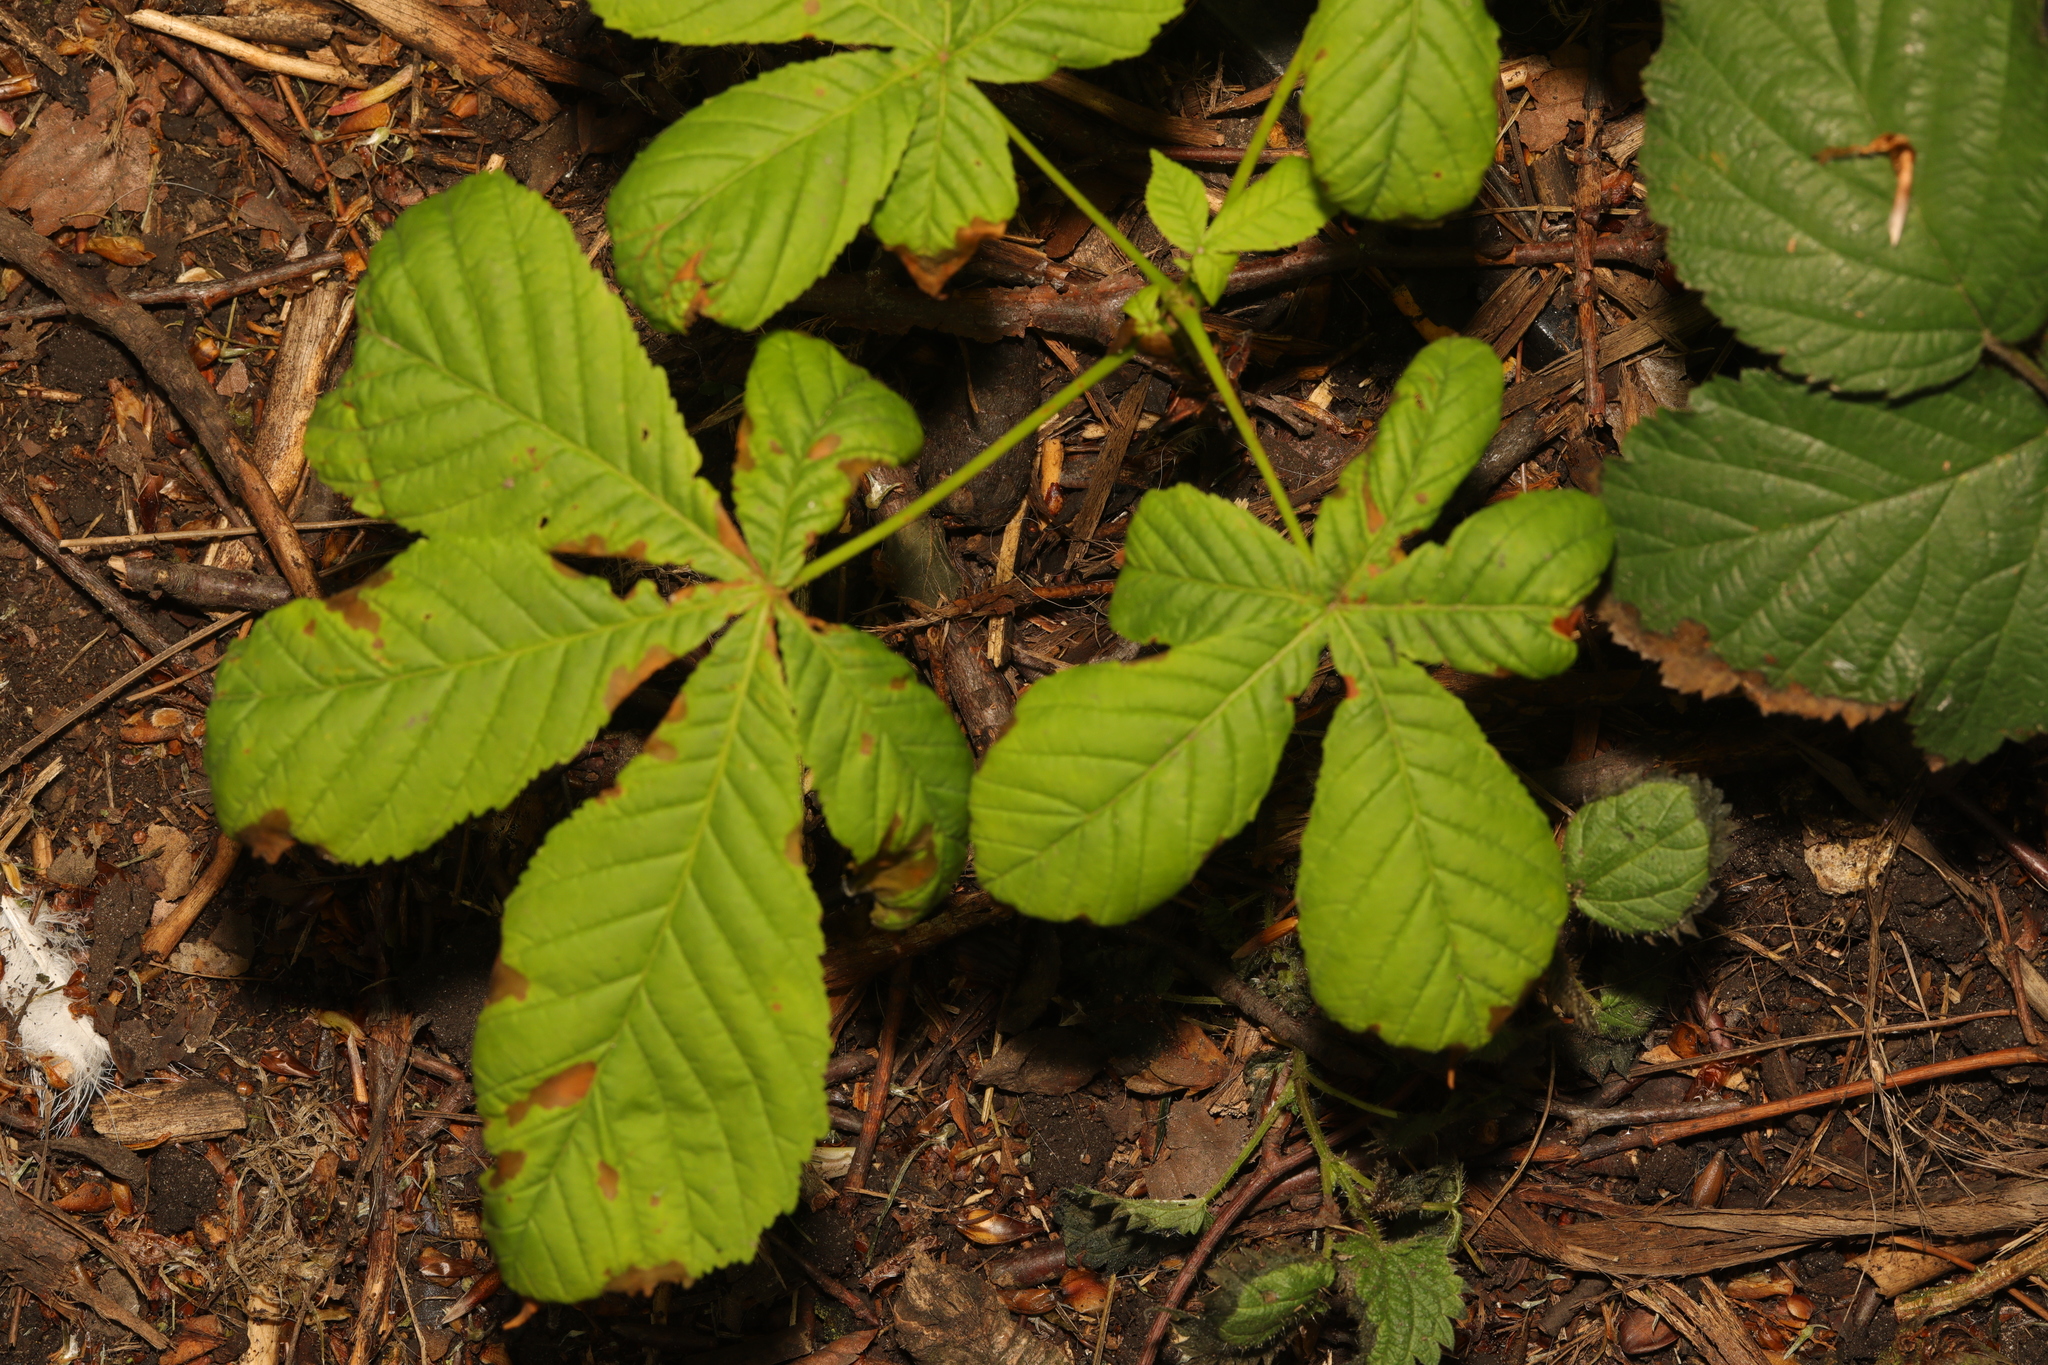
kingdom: Plantae
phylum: Tracheophyta
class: Magnoliopsida
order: Sapindales
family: Sapindaceae
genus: Aesculus
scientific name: Aesculus hippocastanum
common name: Horse-chestnut
